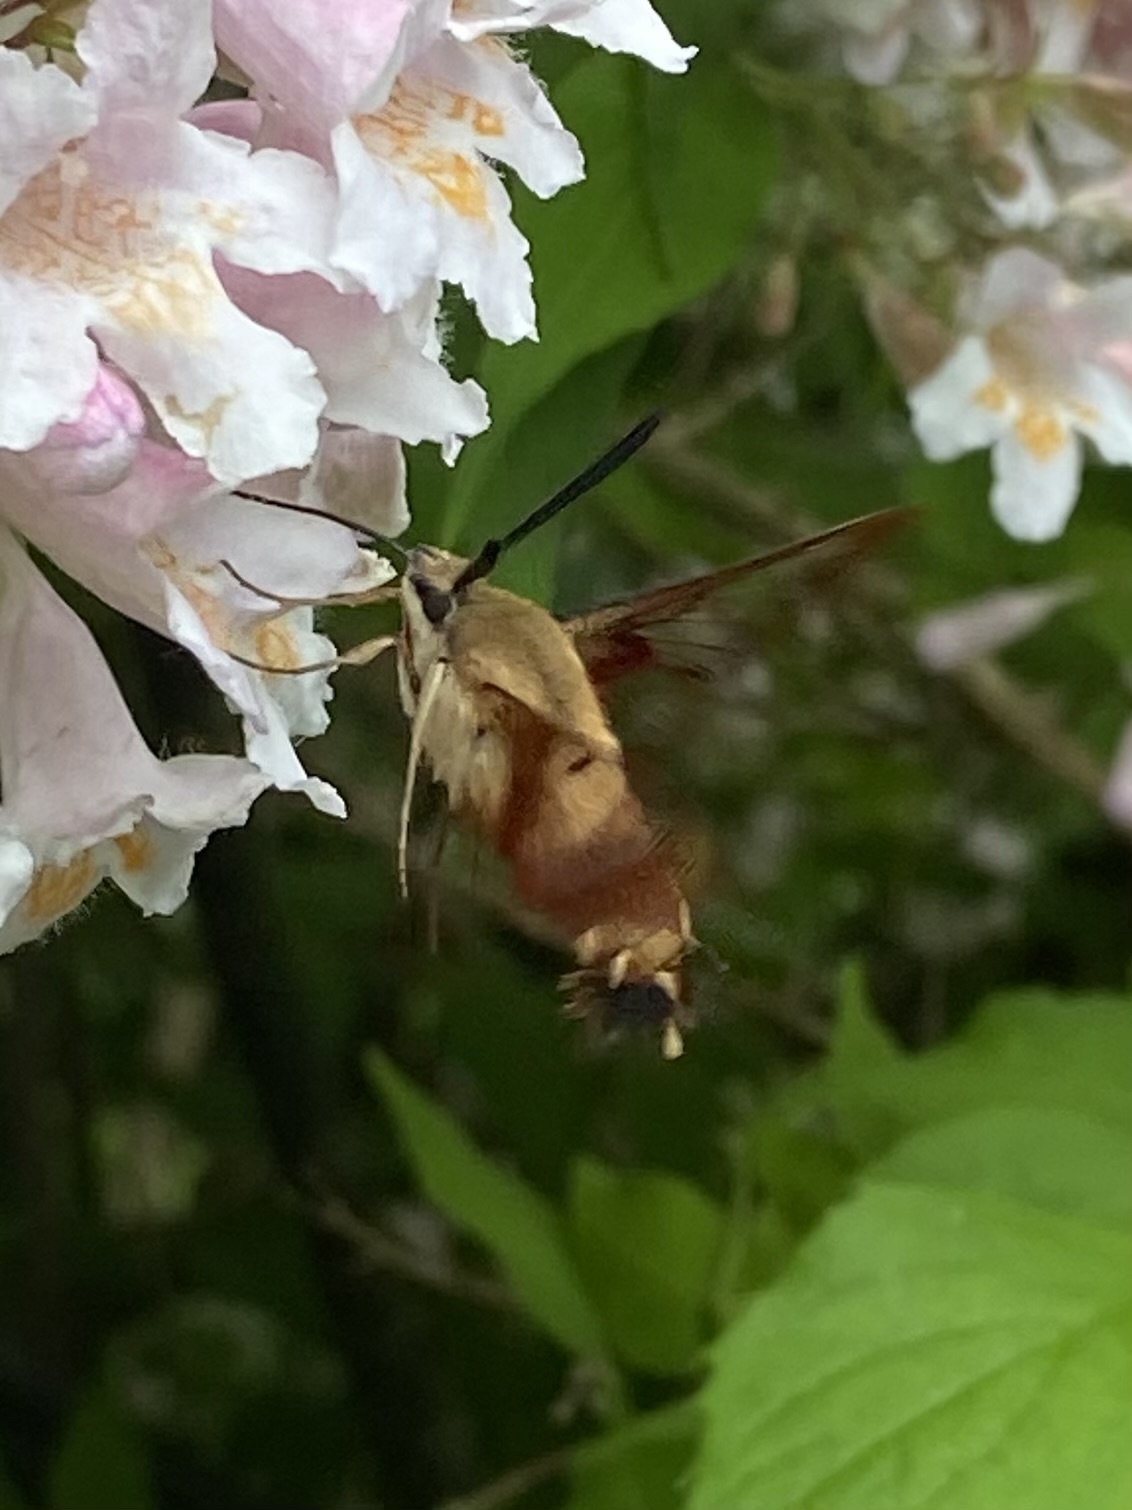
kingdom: Animalia
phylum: Arthropoda
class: Insecta
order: Lepidoptera
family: Sphingidae
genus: Hemaris
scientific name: Hemaris thysbe
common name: Common clear-wing
